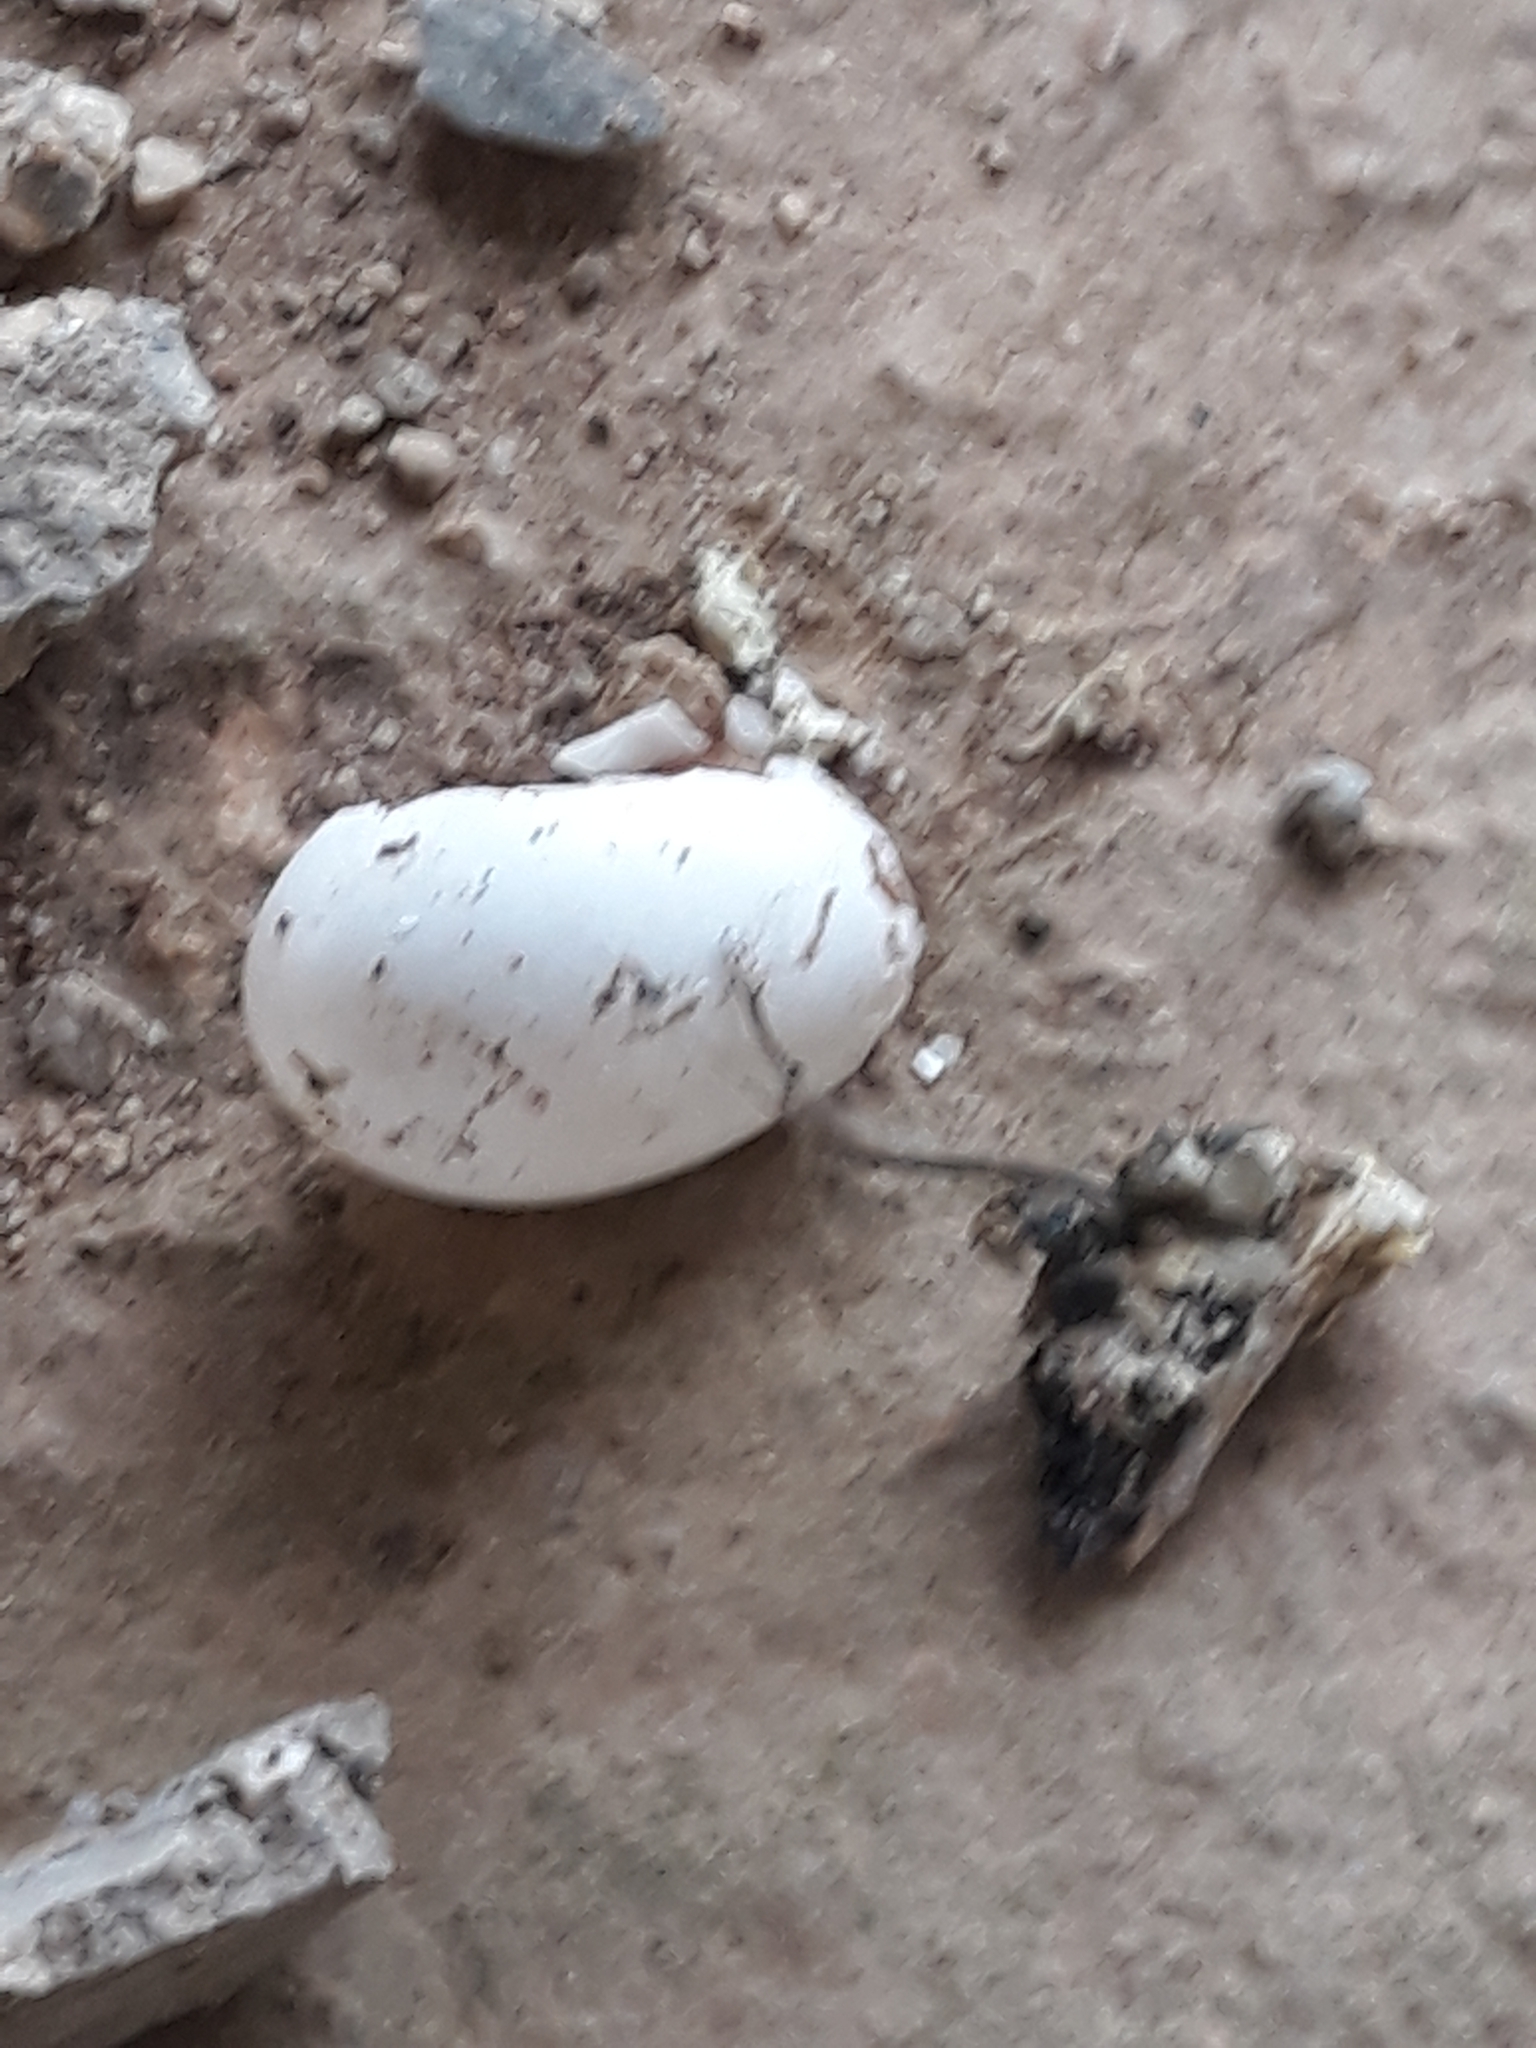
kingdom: Animalia
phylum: Chordata
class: Aves
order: Apodiformes
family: Apodidae
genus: Apus
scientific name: Apus pallidus
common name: Pallid swift
